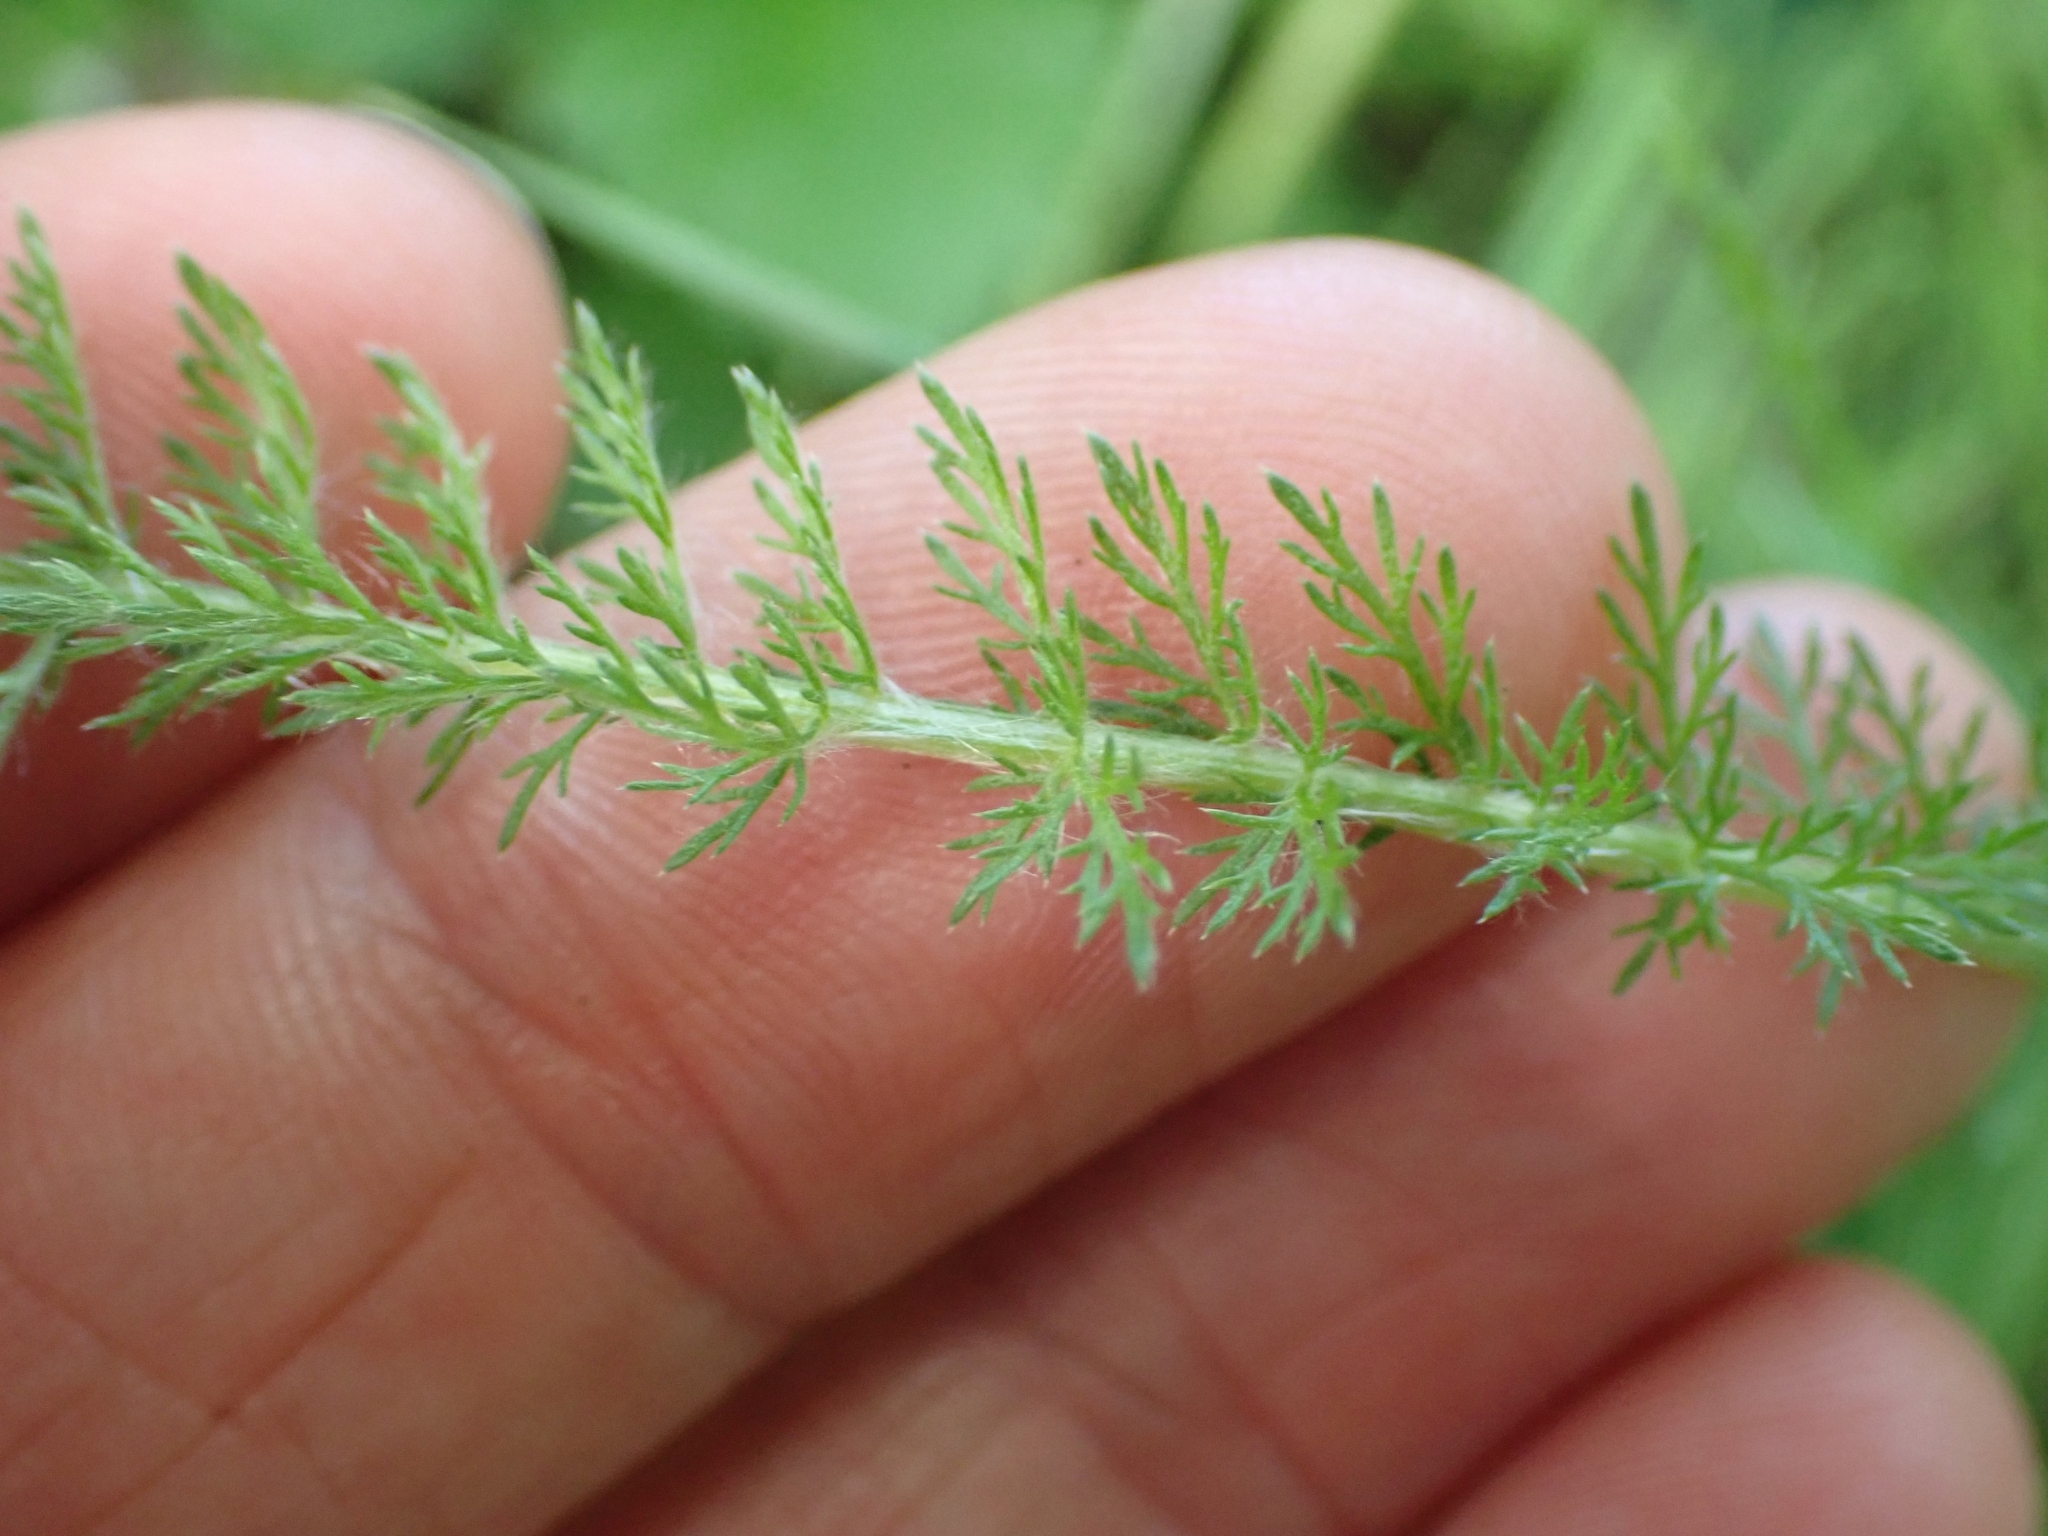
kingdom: Plantae
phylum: Tracheophyta
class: Magnoliopsida
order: Asterales
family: Asteraceae
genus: Achillea
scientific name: Achillea millefolium
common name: Yarrow
